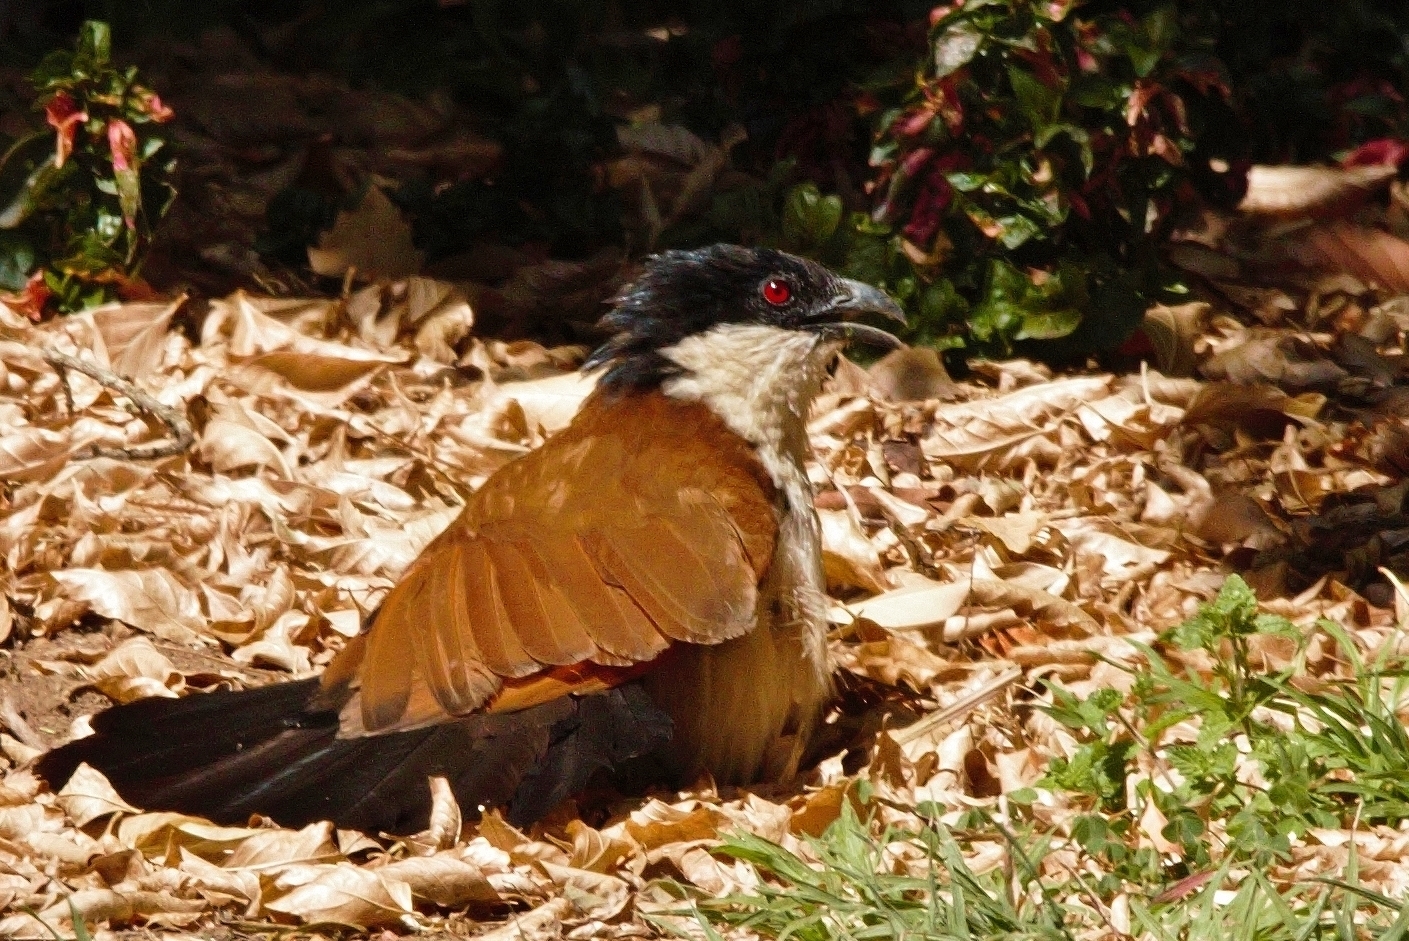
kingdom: Animalia
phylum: Chordata
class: Aves
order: Cuculiformes
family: Cuculidae
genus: Centropus
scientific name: Centropus senegalensis
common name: Senegal coucal
